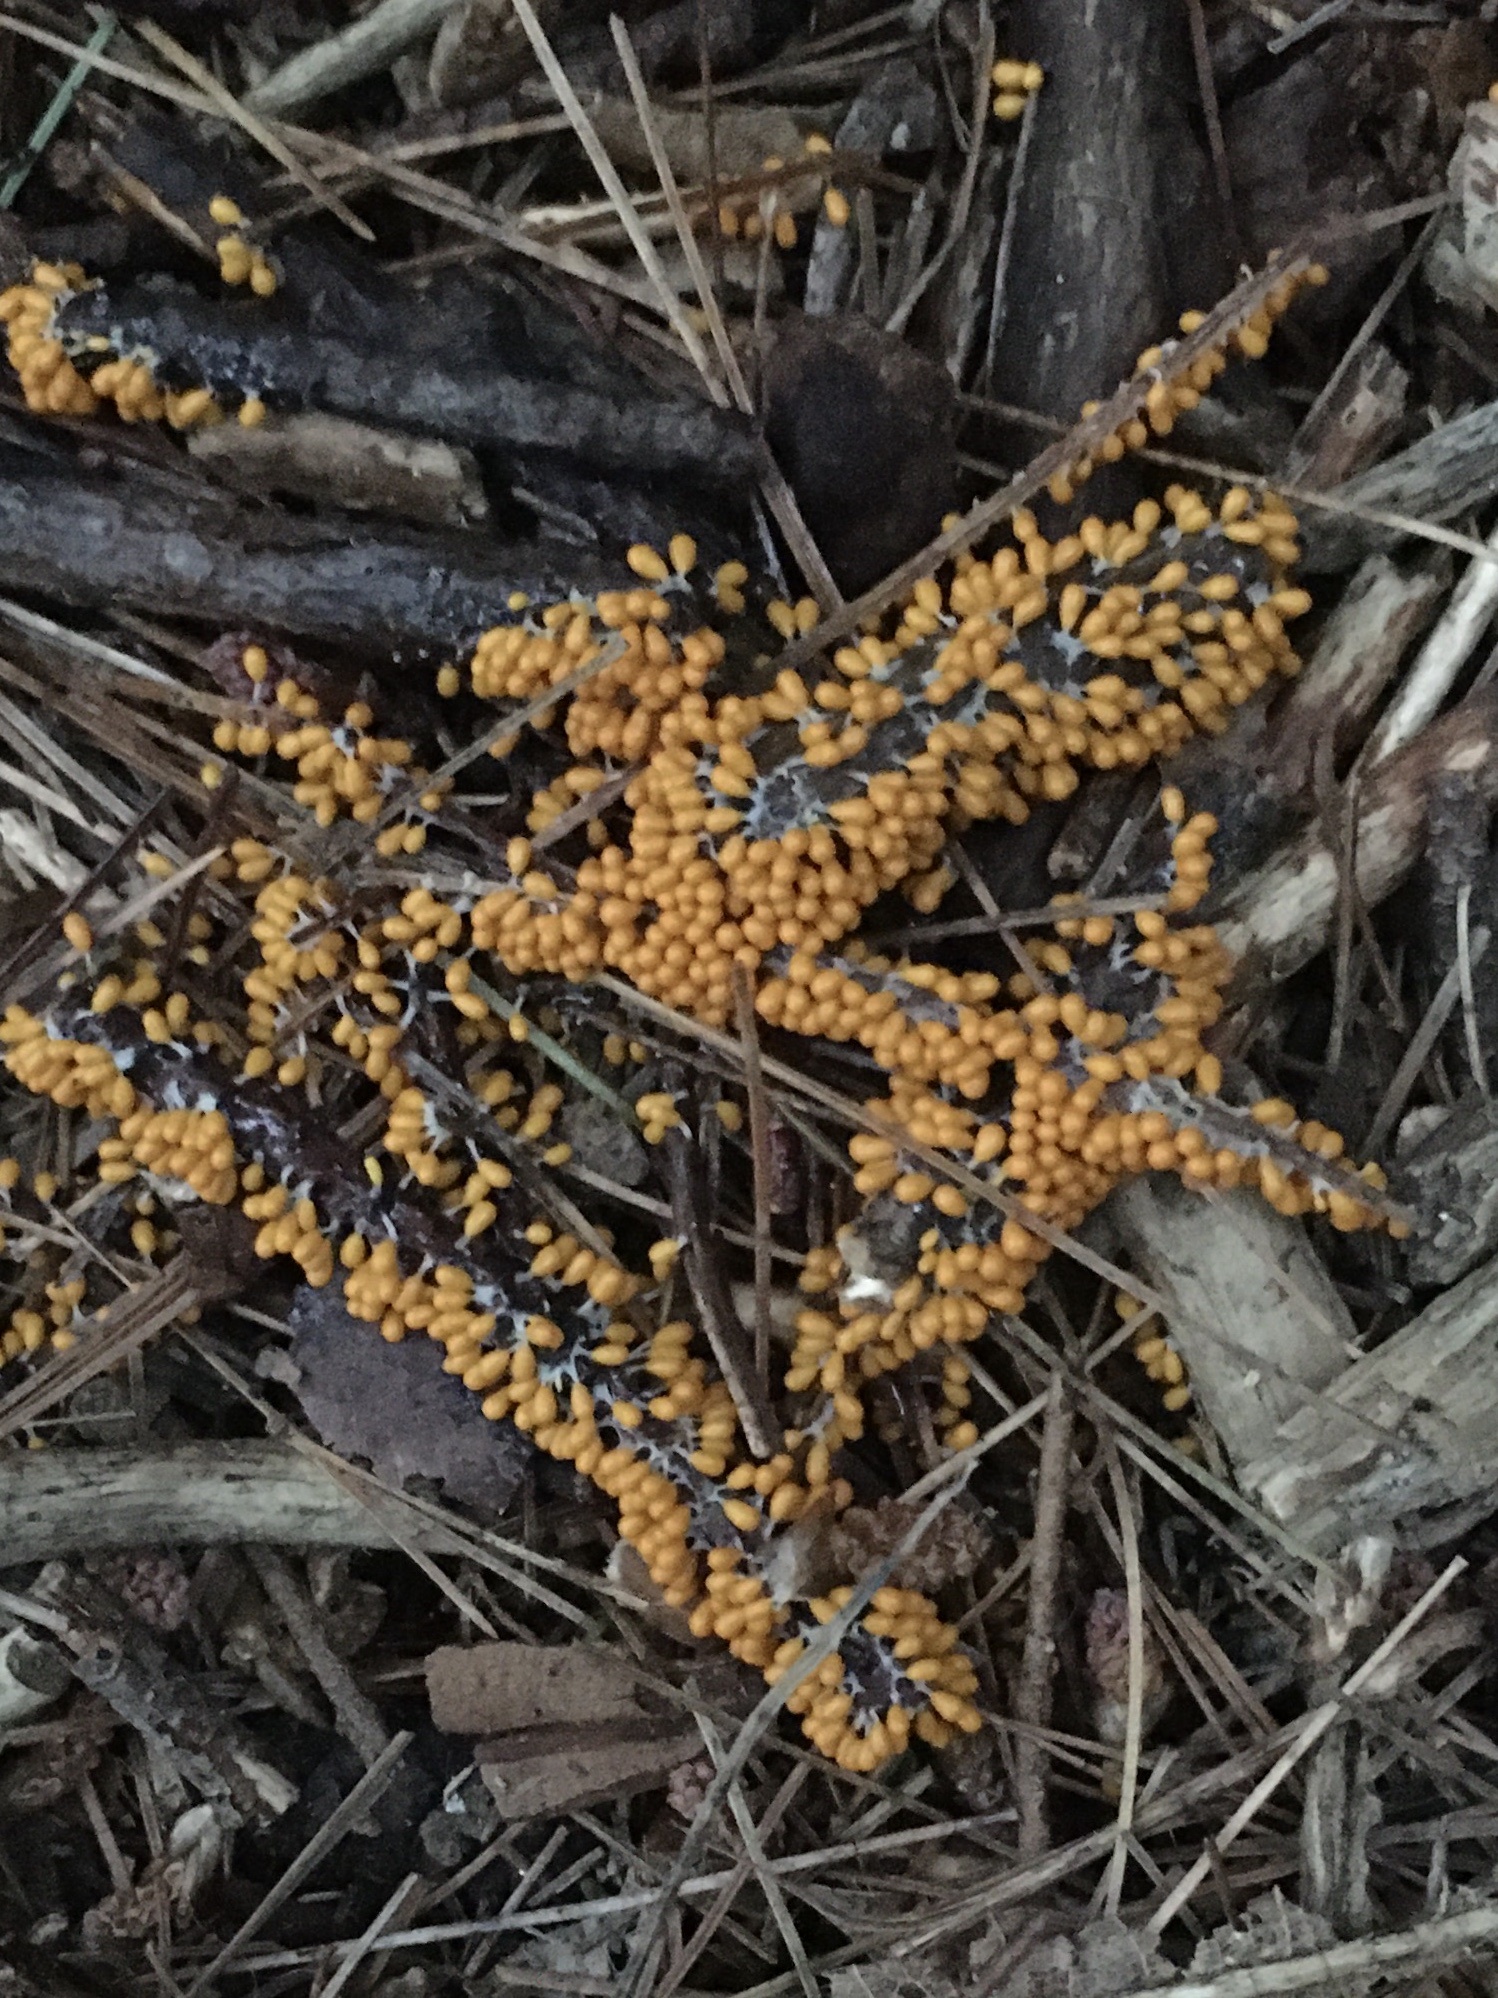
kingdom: Protozoa
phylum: Mycetozoa
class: Myxomycetes
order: Physarales
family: Physaraceae
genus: Leocarpus
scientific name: Leocarpus fragilis
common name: Insect-egg slime
